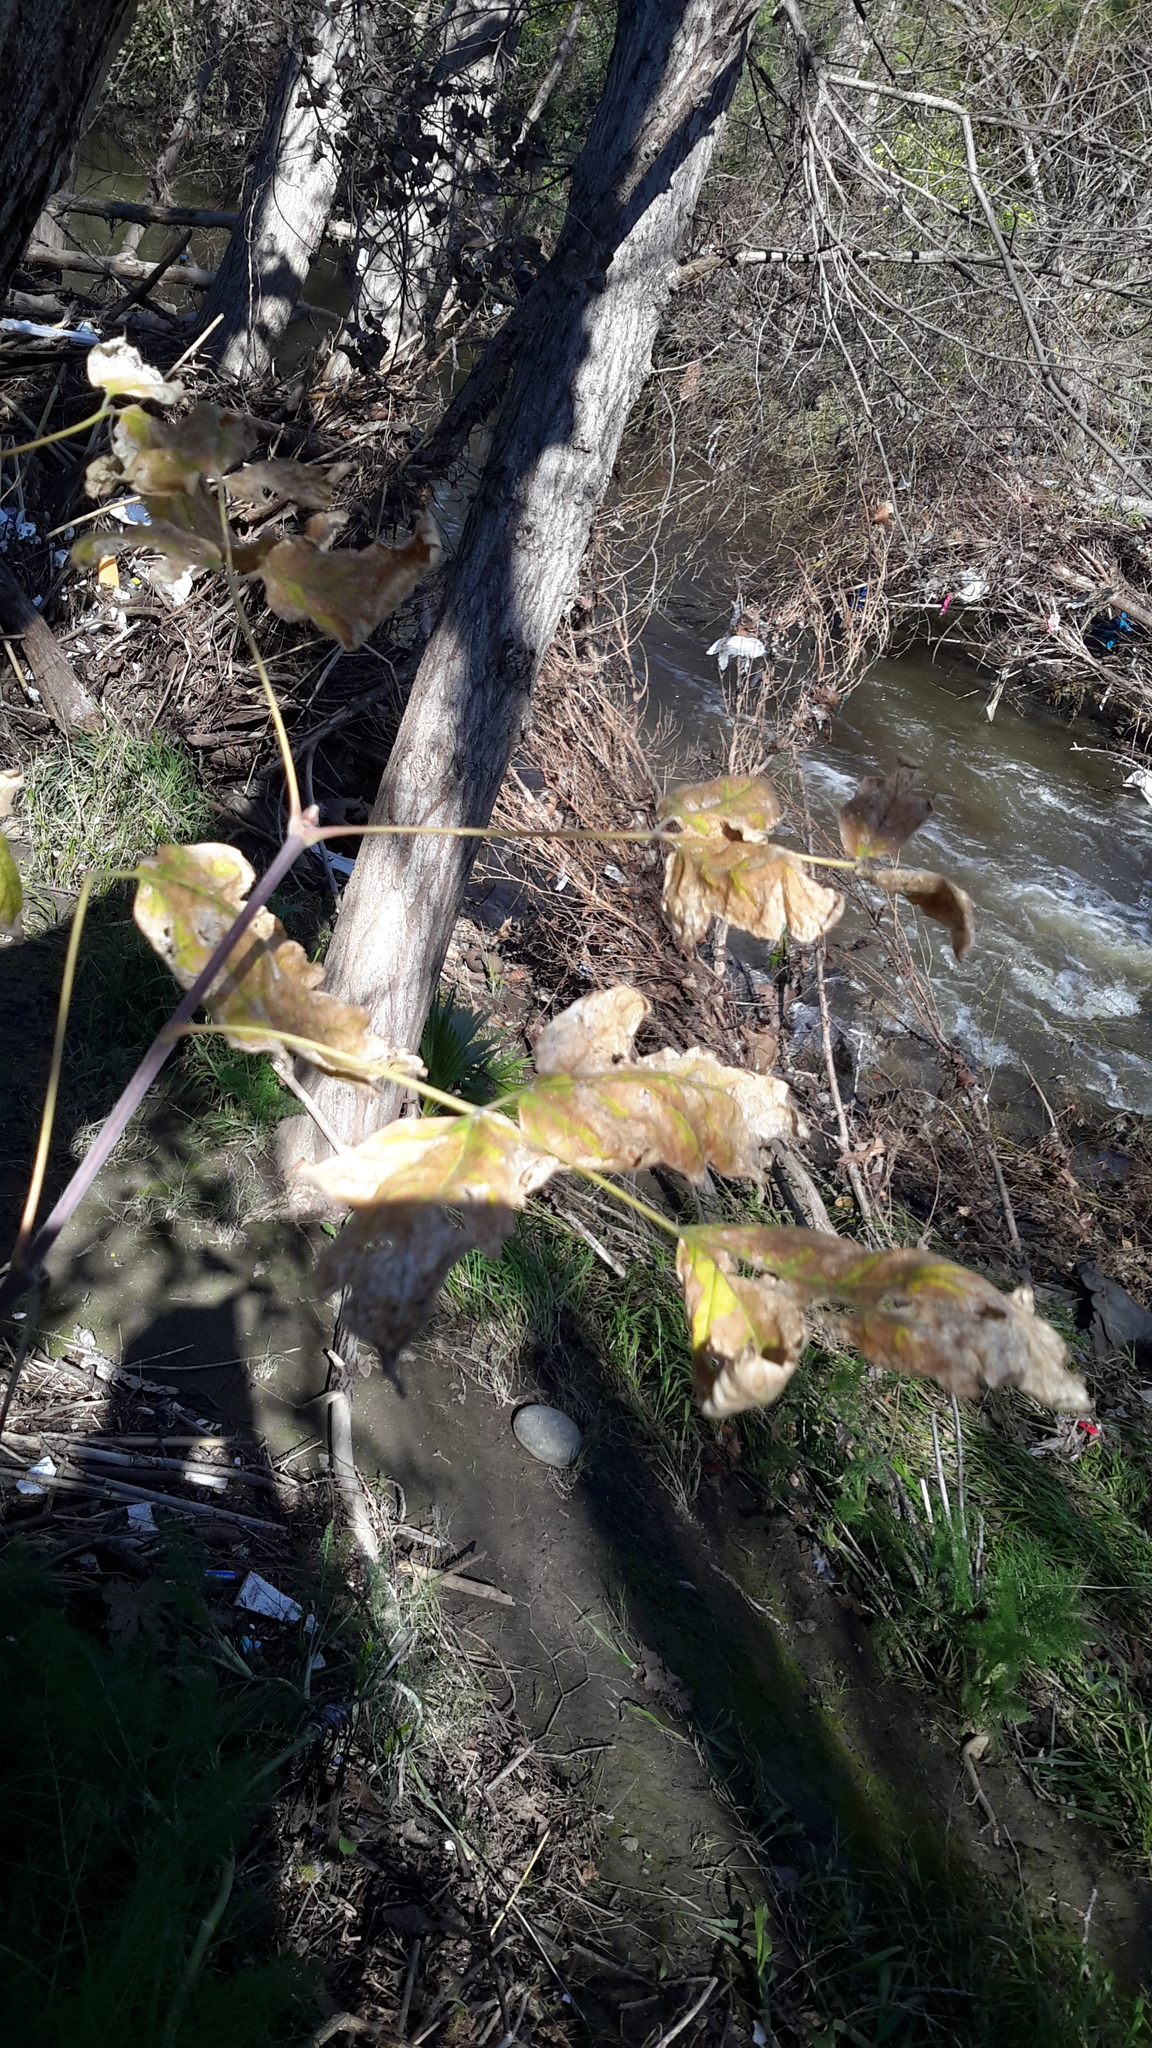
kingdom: Plantae
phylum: Tracheophyta
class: Magnoliopsida
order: Sapindales
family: Sapindaceae
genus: Acer
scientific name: Acer negundo
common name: Ashleaf maple
